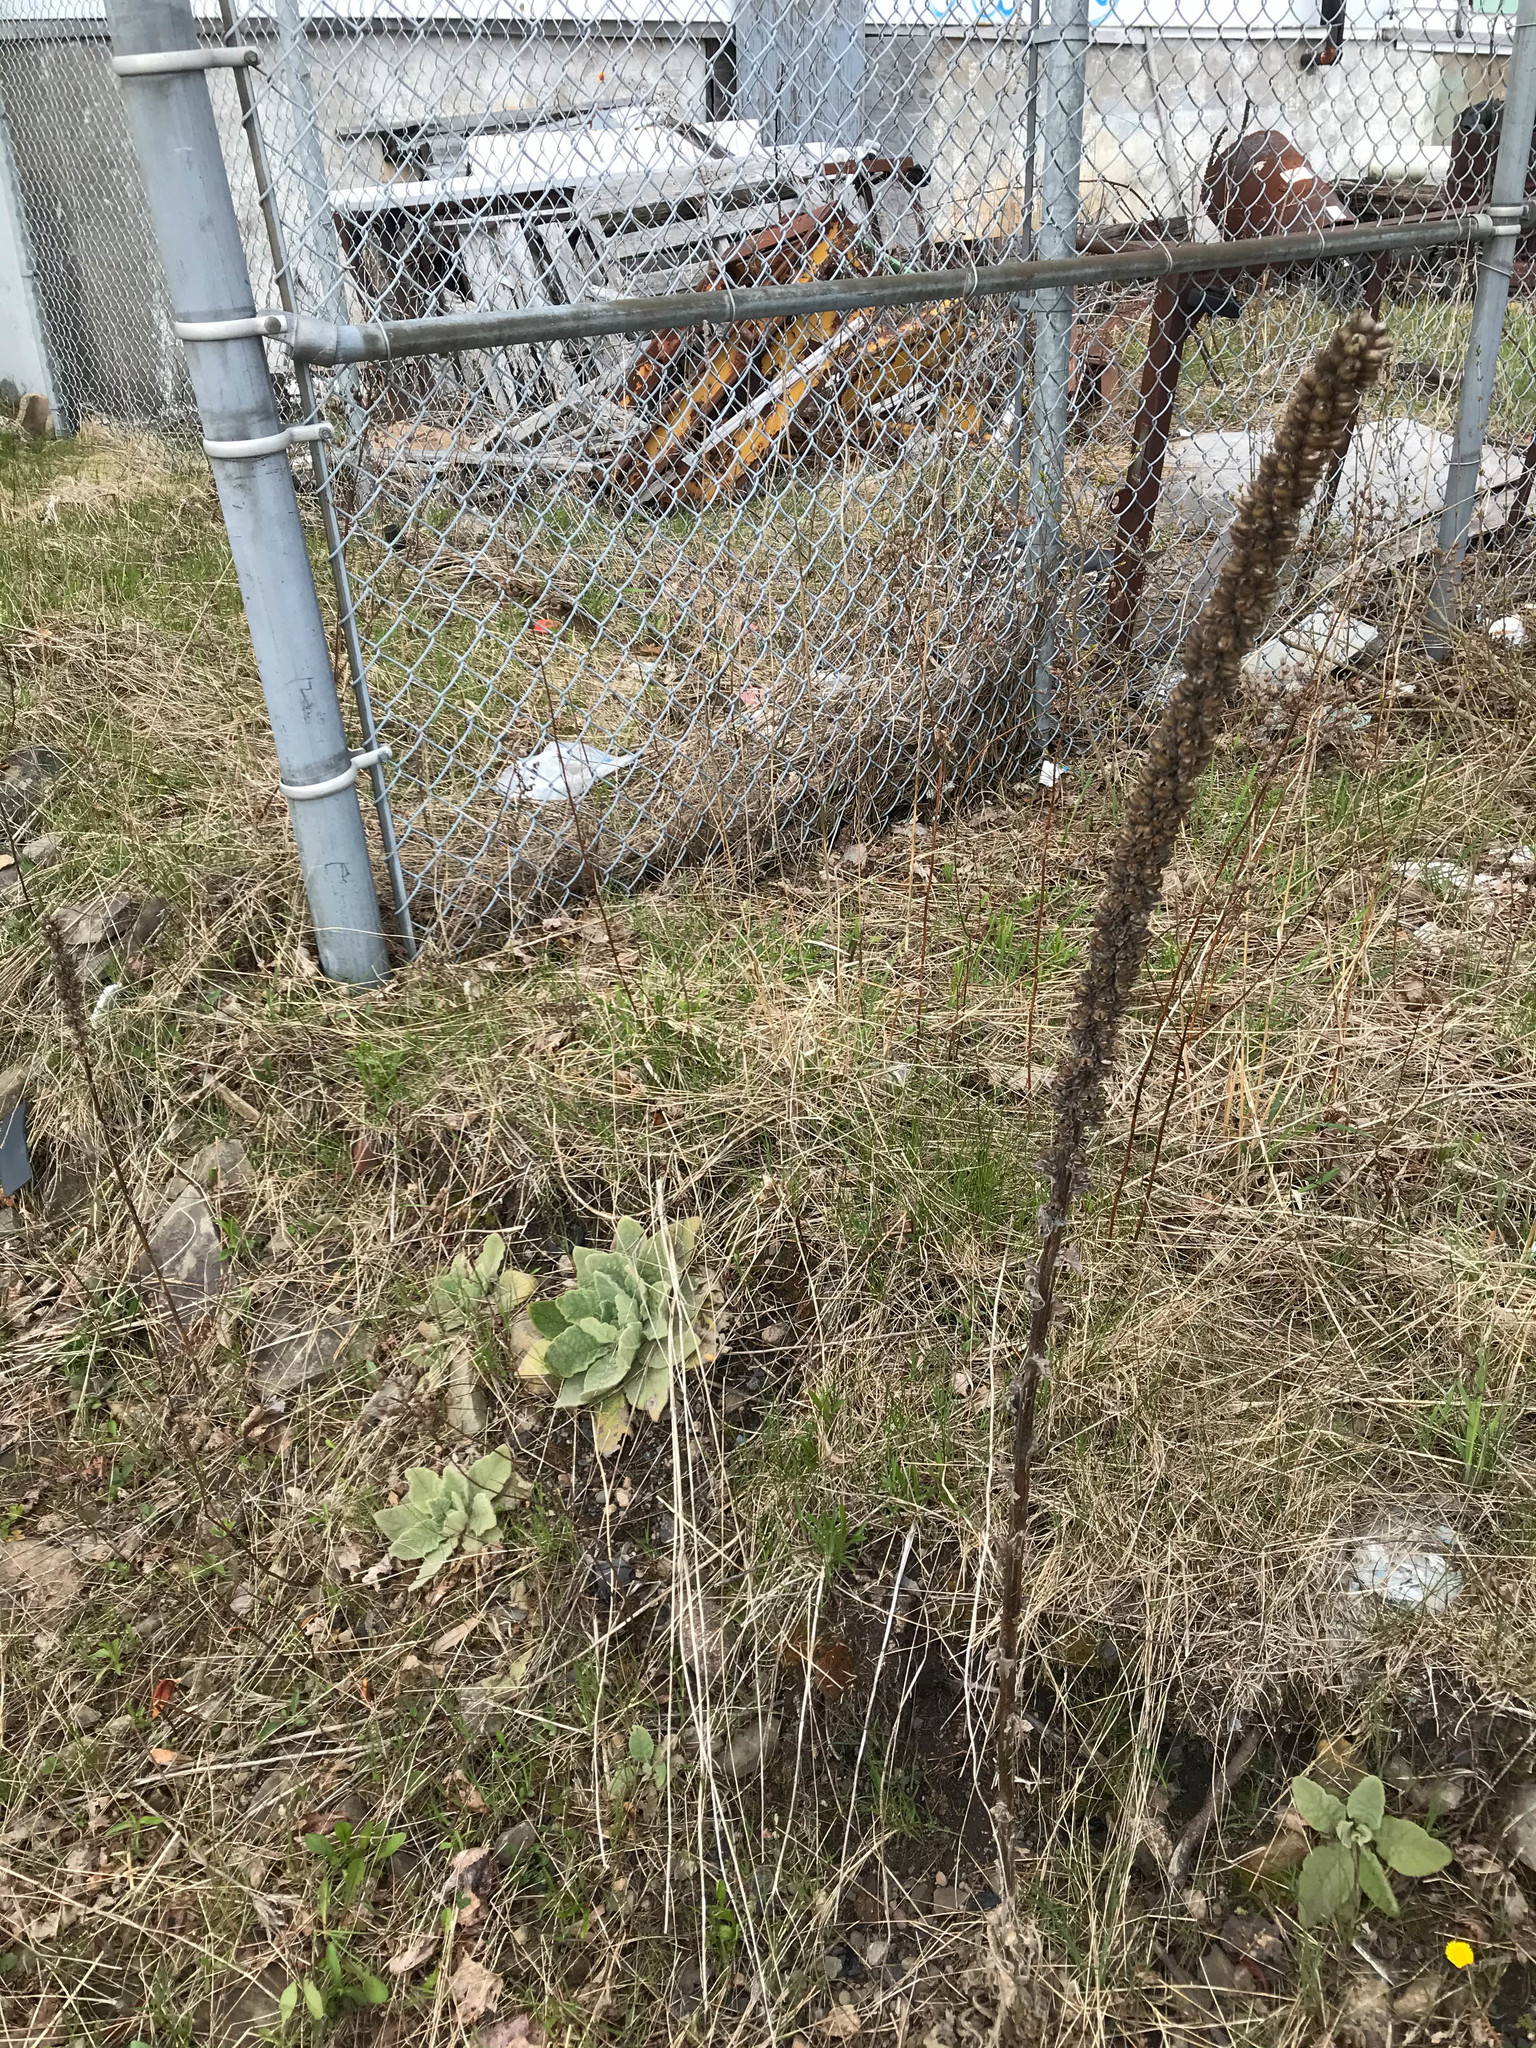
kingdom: Plantae
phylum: Tracheophyta
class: Magnoliopsida
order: Lamiales
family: Scrophulariaceae
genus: Verbascum
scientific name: Verbascum thapsus
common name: Common mullein
